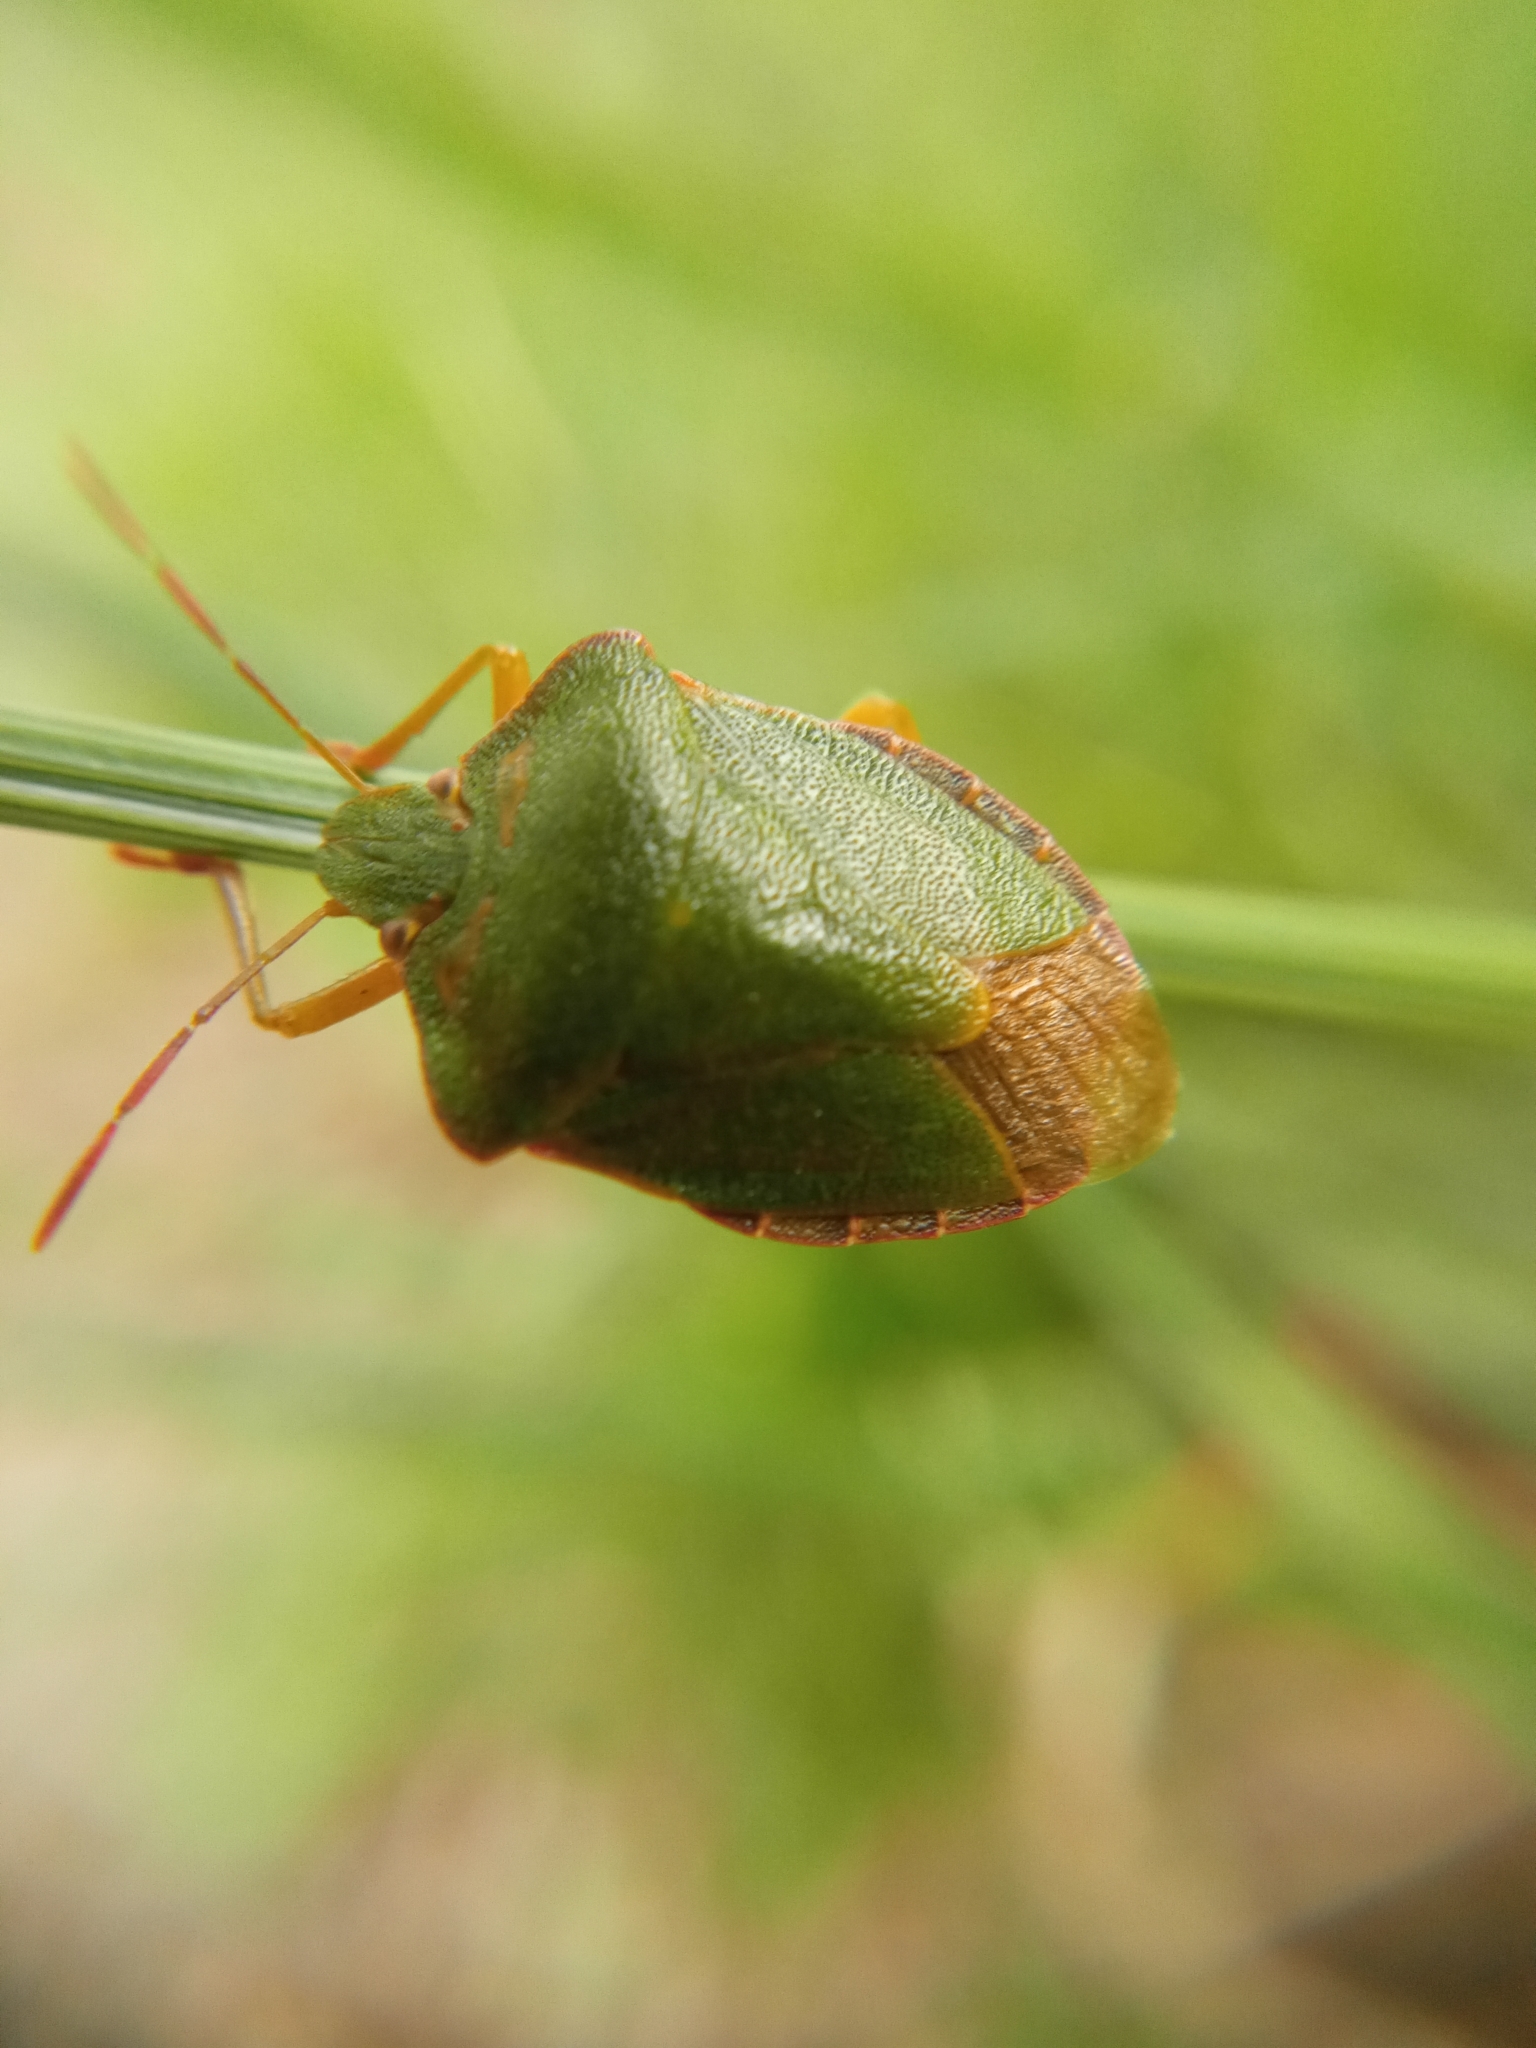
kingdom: Animalia
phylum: Arthropoda
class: Insecta
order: Hemiptera
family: Pentatomidae
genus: Palomena
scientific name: Palomena prasina
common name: Green shieldbug
